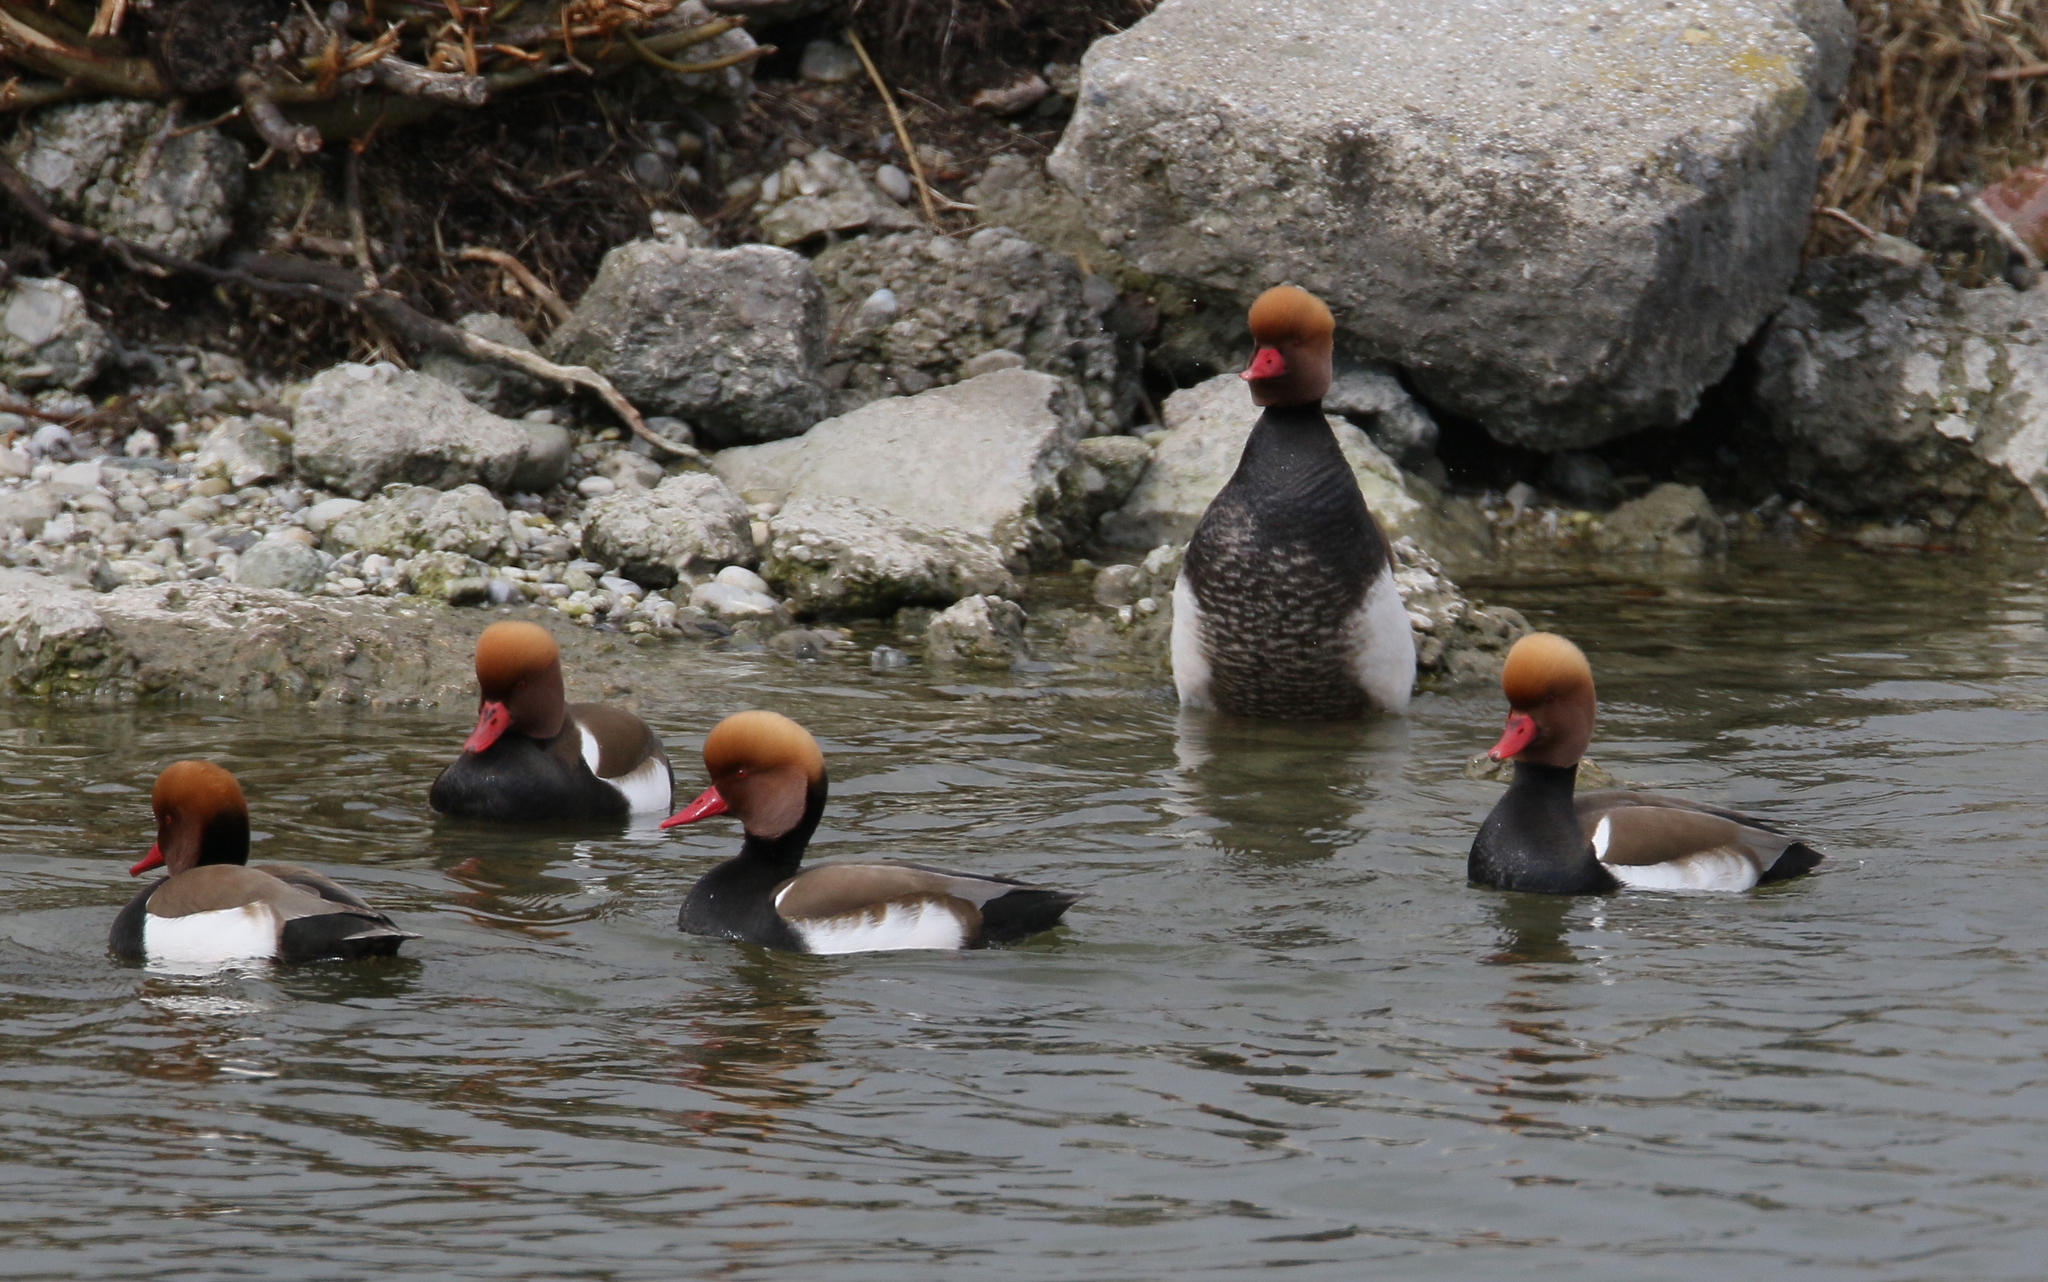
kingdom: Animalia
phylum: Chordata
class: Aves
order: Anseriformes
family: Anatidae
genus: Netta
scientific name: Netta rufina
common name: Red-crested pochard
